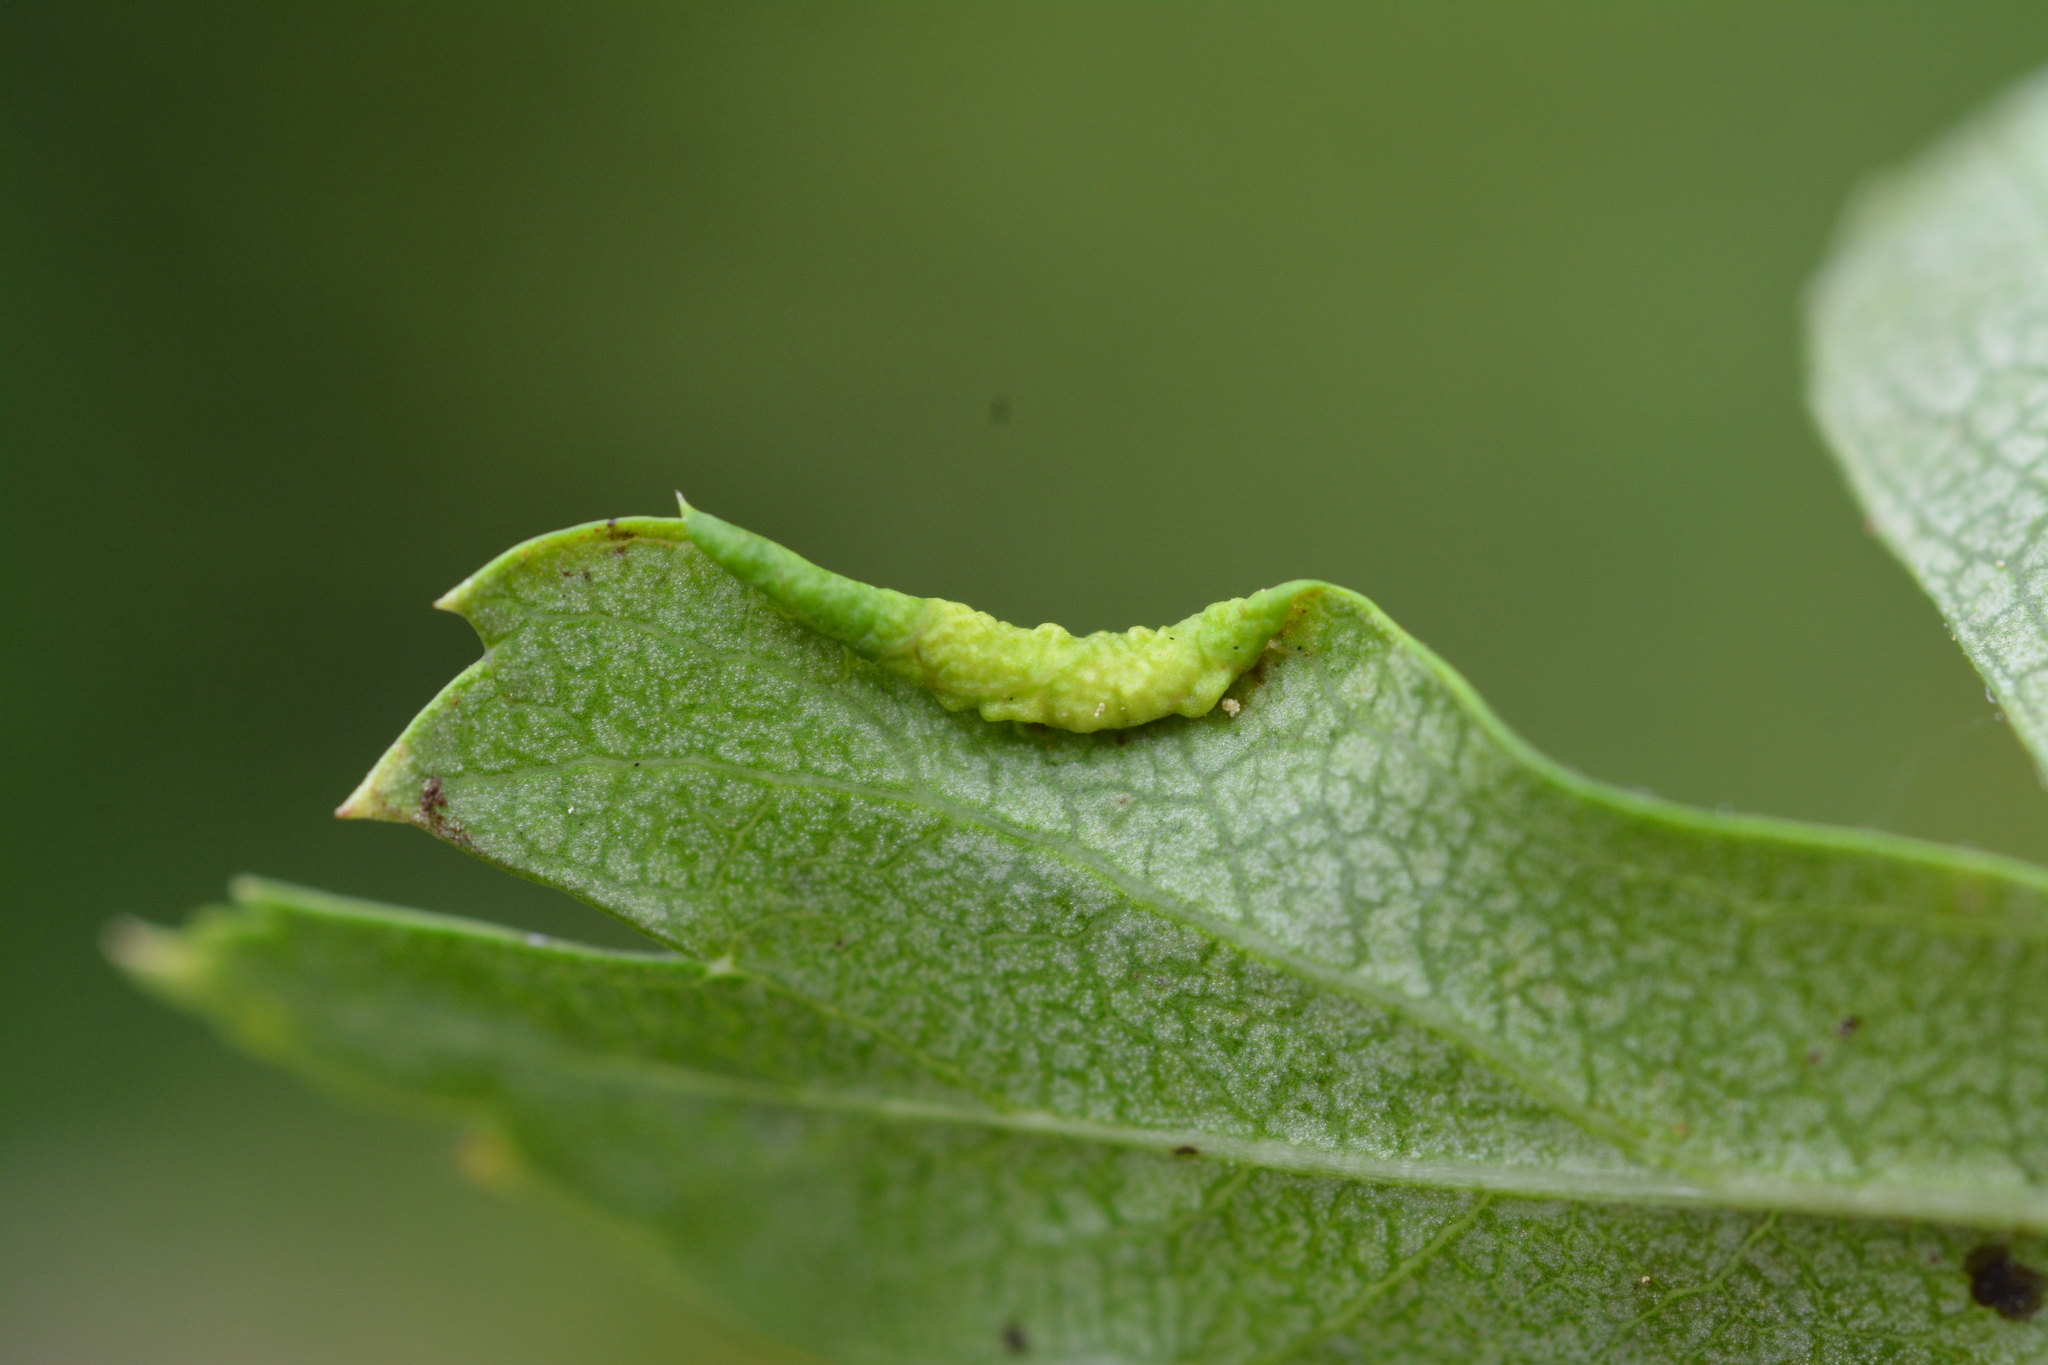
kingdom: Animalia
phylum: Arthropoda
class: Arachnida
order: Trombidiformes
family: Eriophyidae
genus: Phyllocoptes
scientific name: Phyllocoptes goniothorax
